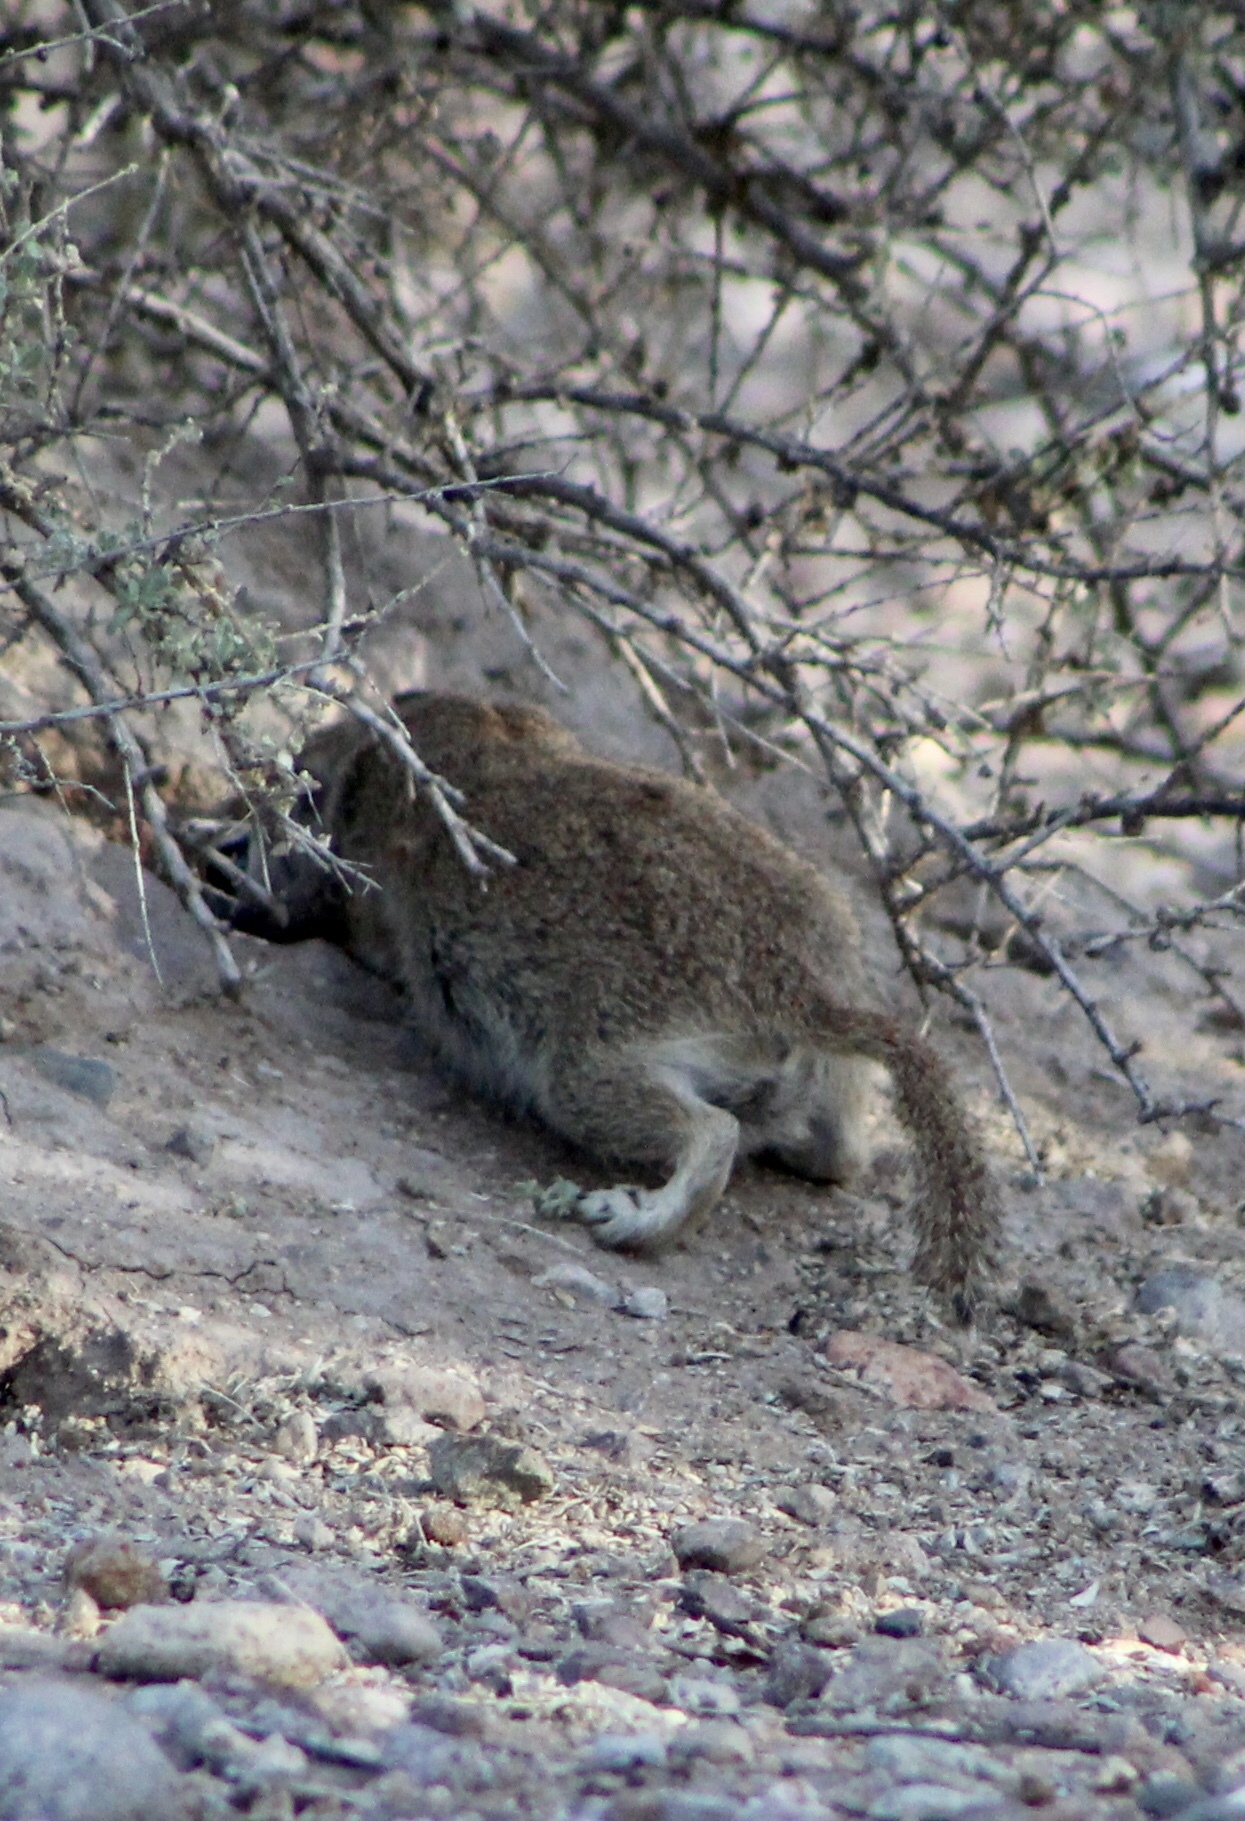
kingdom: Animalia
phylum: Chordata
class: Mammalia
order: Rodentia
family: Sciuridae
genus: Xerospermophilus
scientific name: Xerospermophilus tereticaudus
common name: Round-tailed ground squirrel
